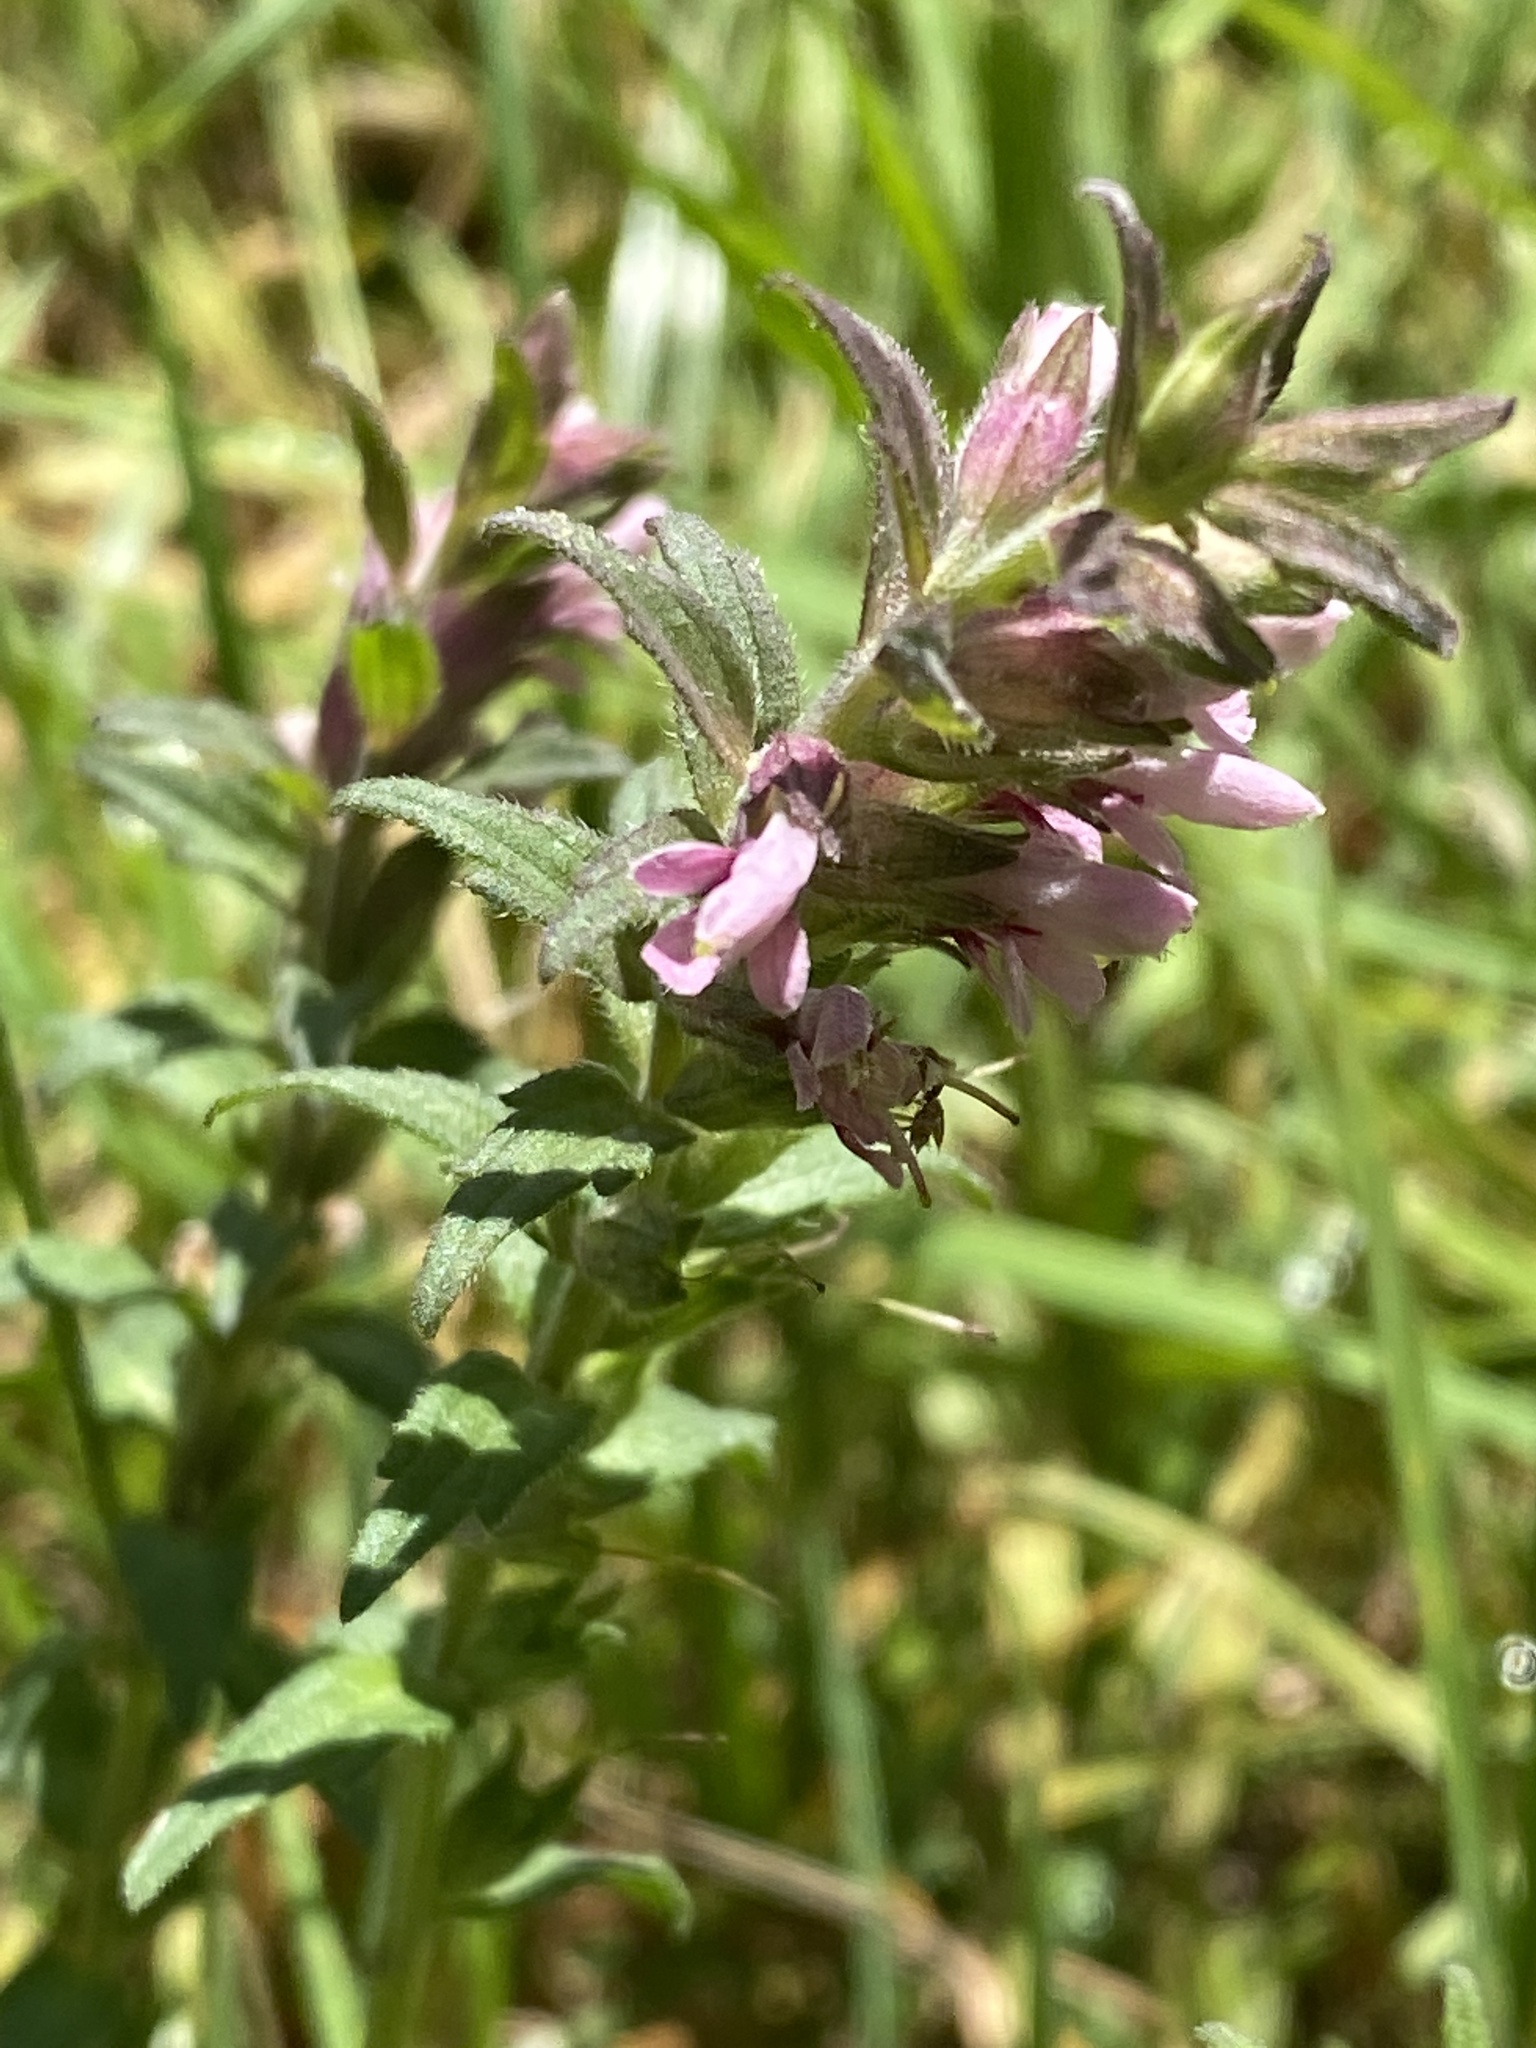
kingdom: Plantae
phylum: Tracheophyta
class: Magnoliopsida
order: Lamiales
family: Orobanchaceae
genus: Odontites
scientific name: Odontites vernus
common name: Red bartsia
